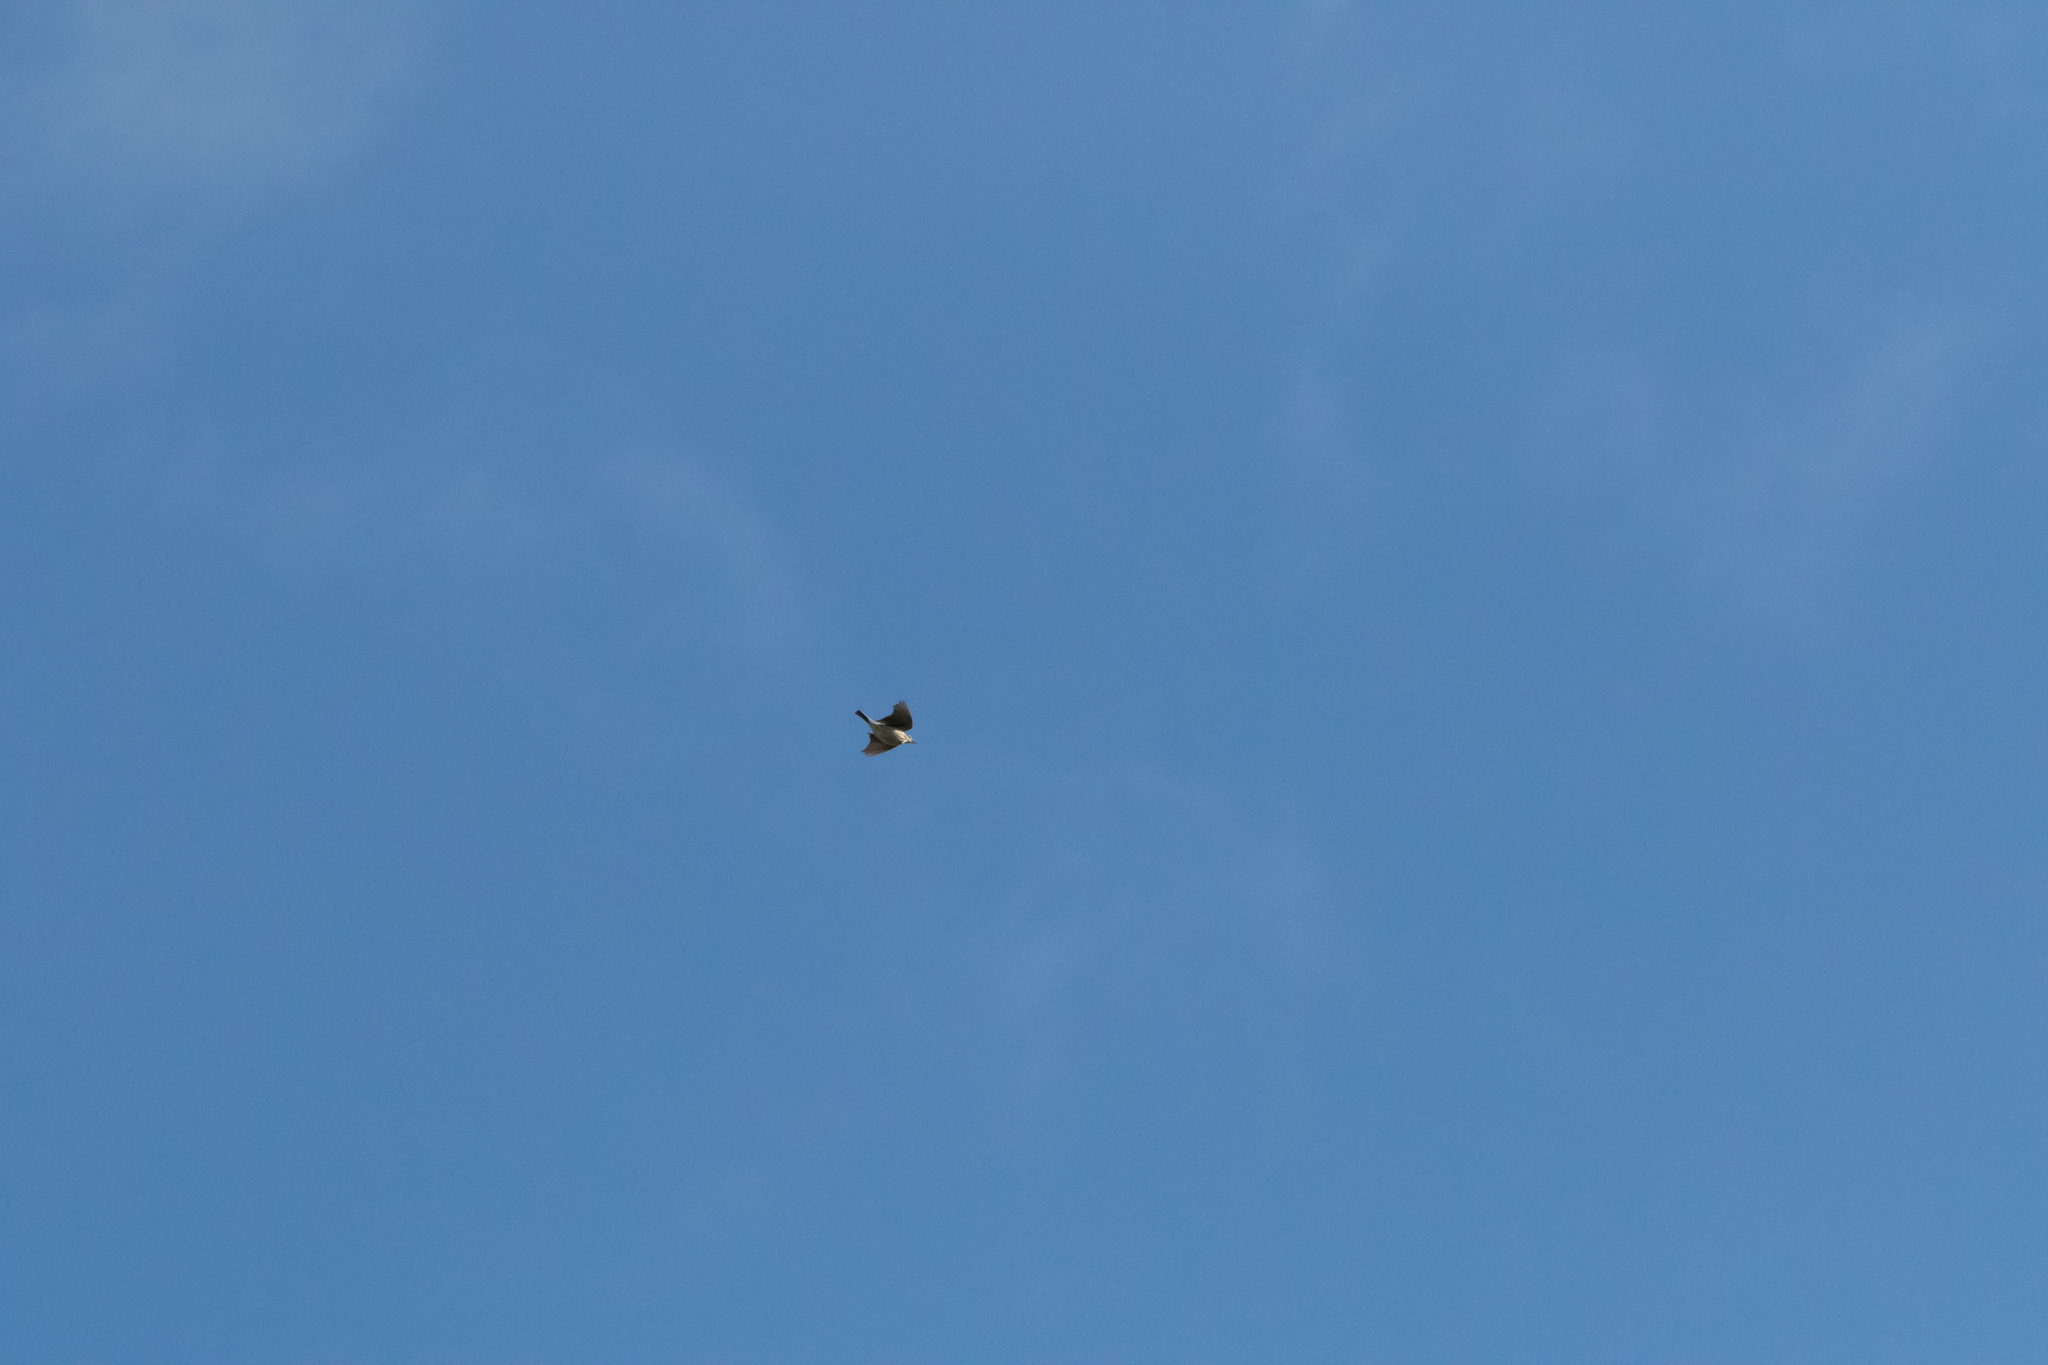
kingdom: Animalia
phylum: Chordata
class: Aves
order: Passeriformes
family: Motacillidae
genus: Anthus
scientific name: Anthus pratensis
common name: Meadow pipit
